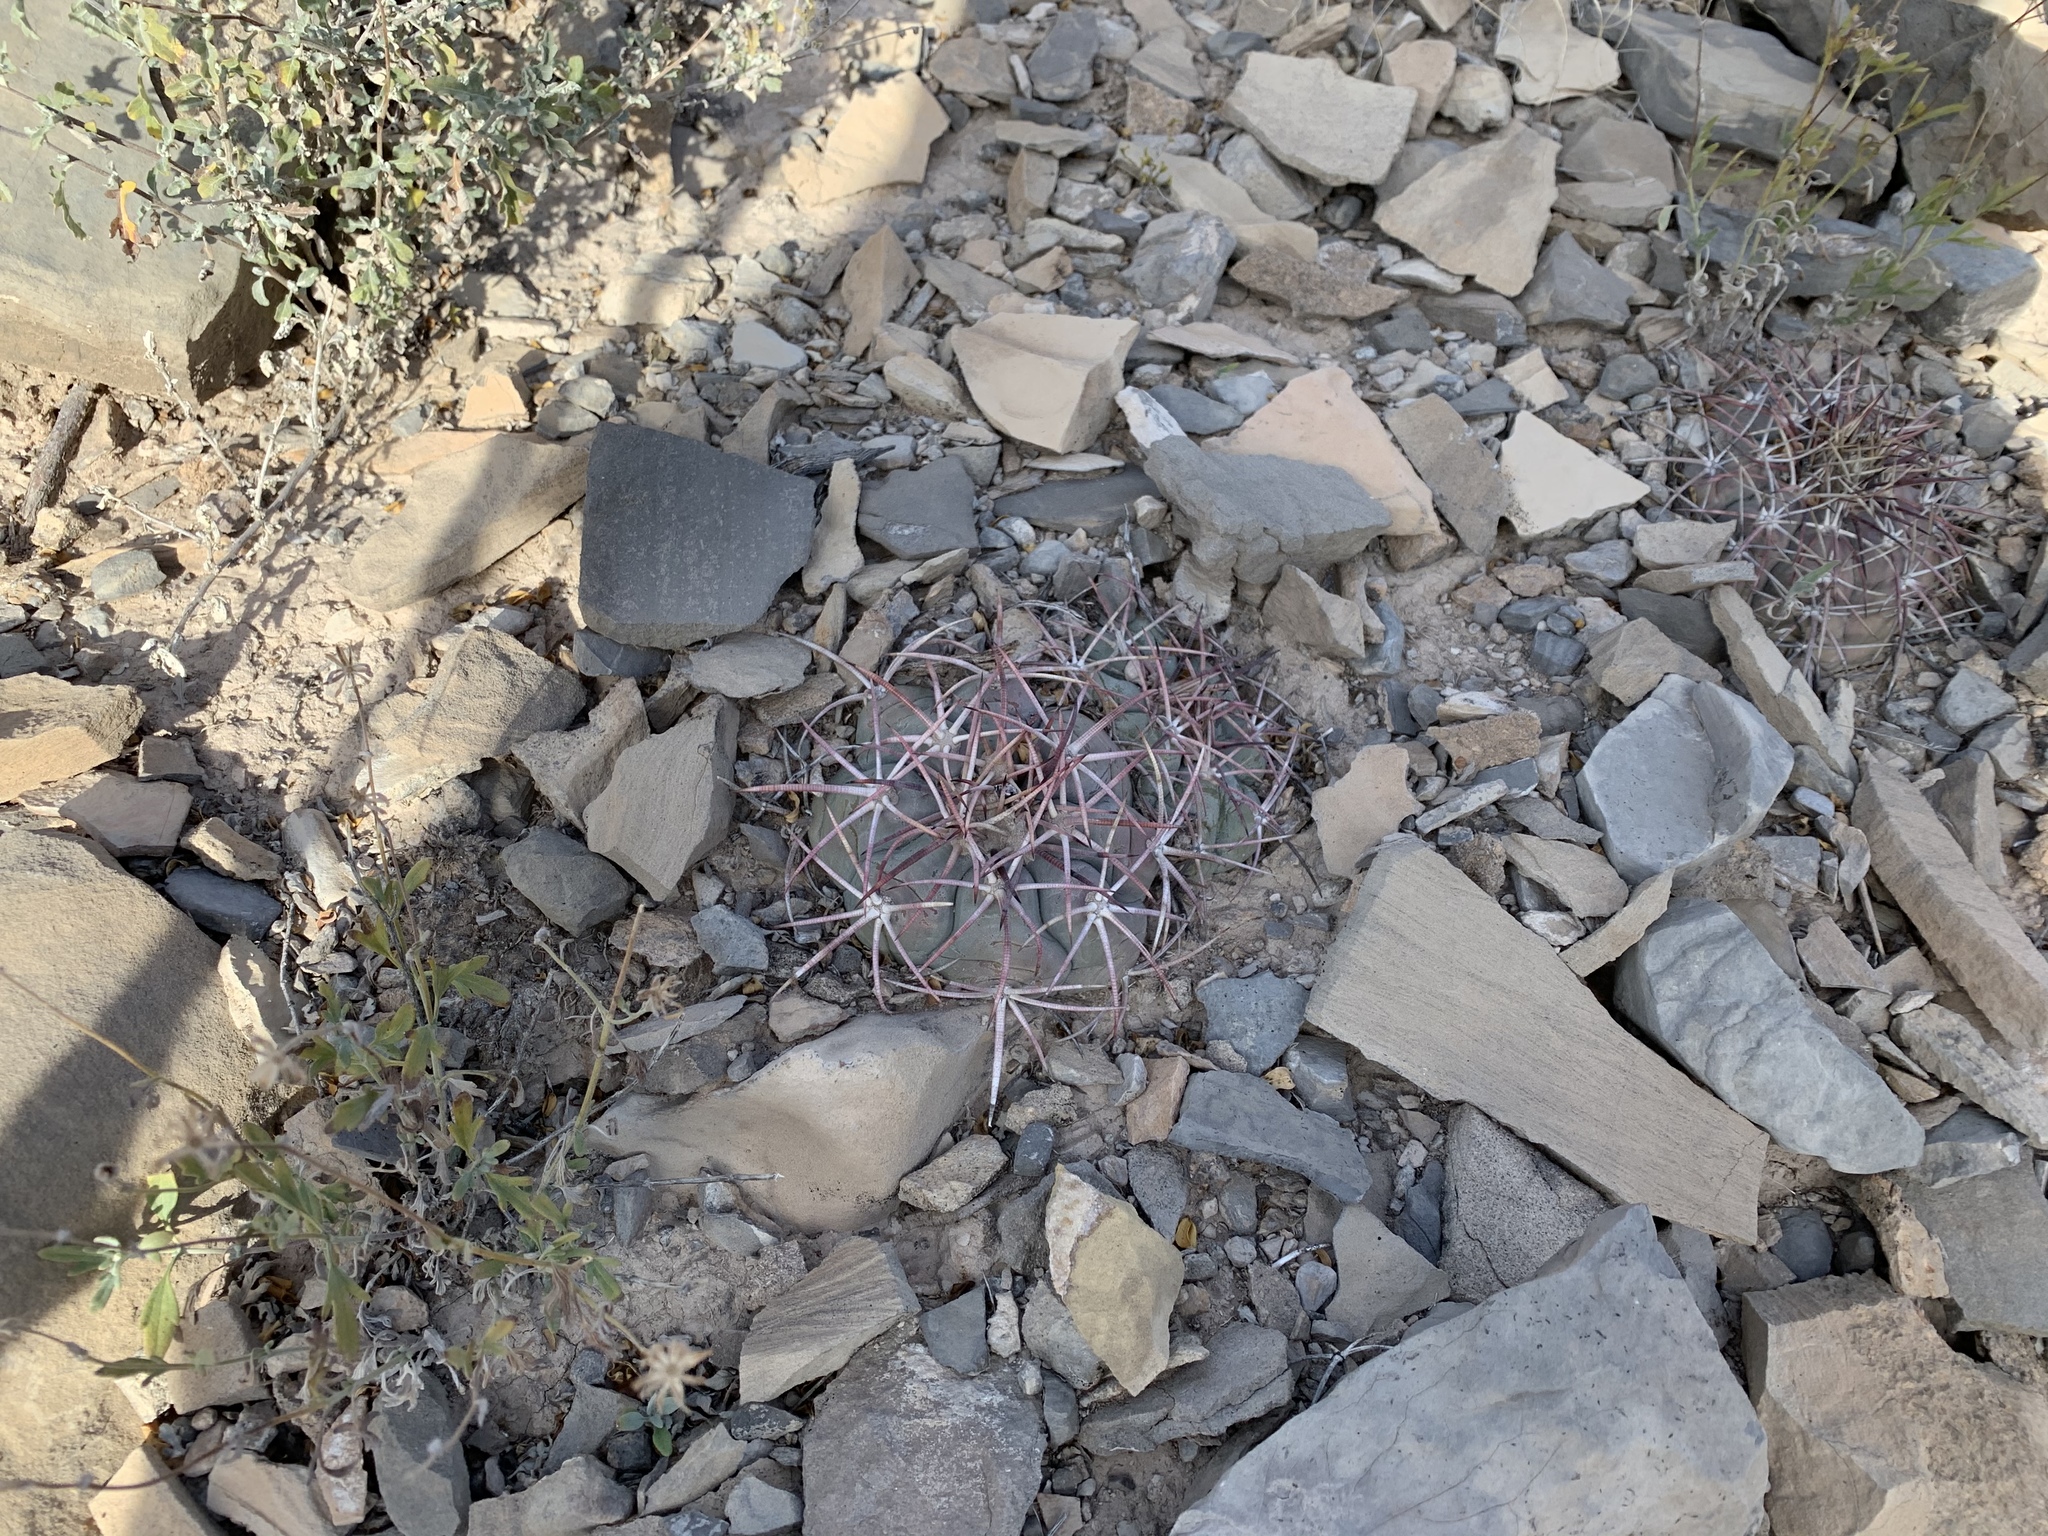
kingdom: Plantae
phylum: Tracheophyta
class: Magnoliopsida
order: Caryophyllales
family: Cactaceae
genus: Echinocactus
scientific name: Echinocactus horizonthalonius
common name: Devilshead
